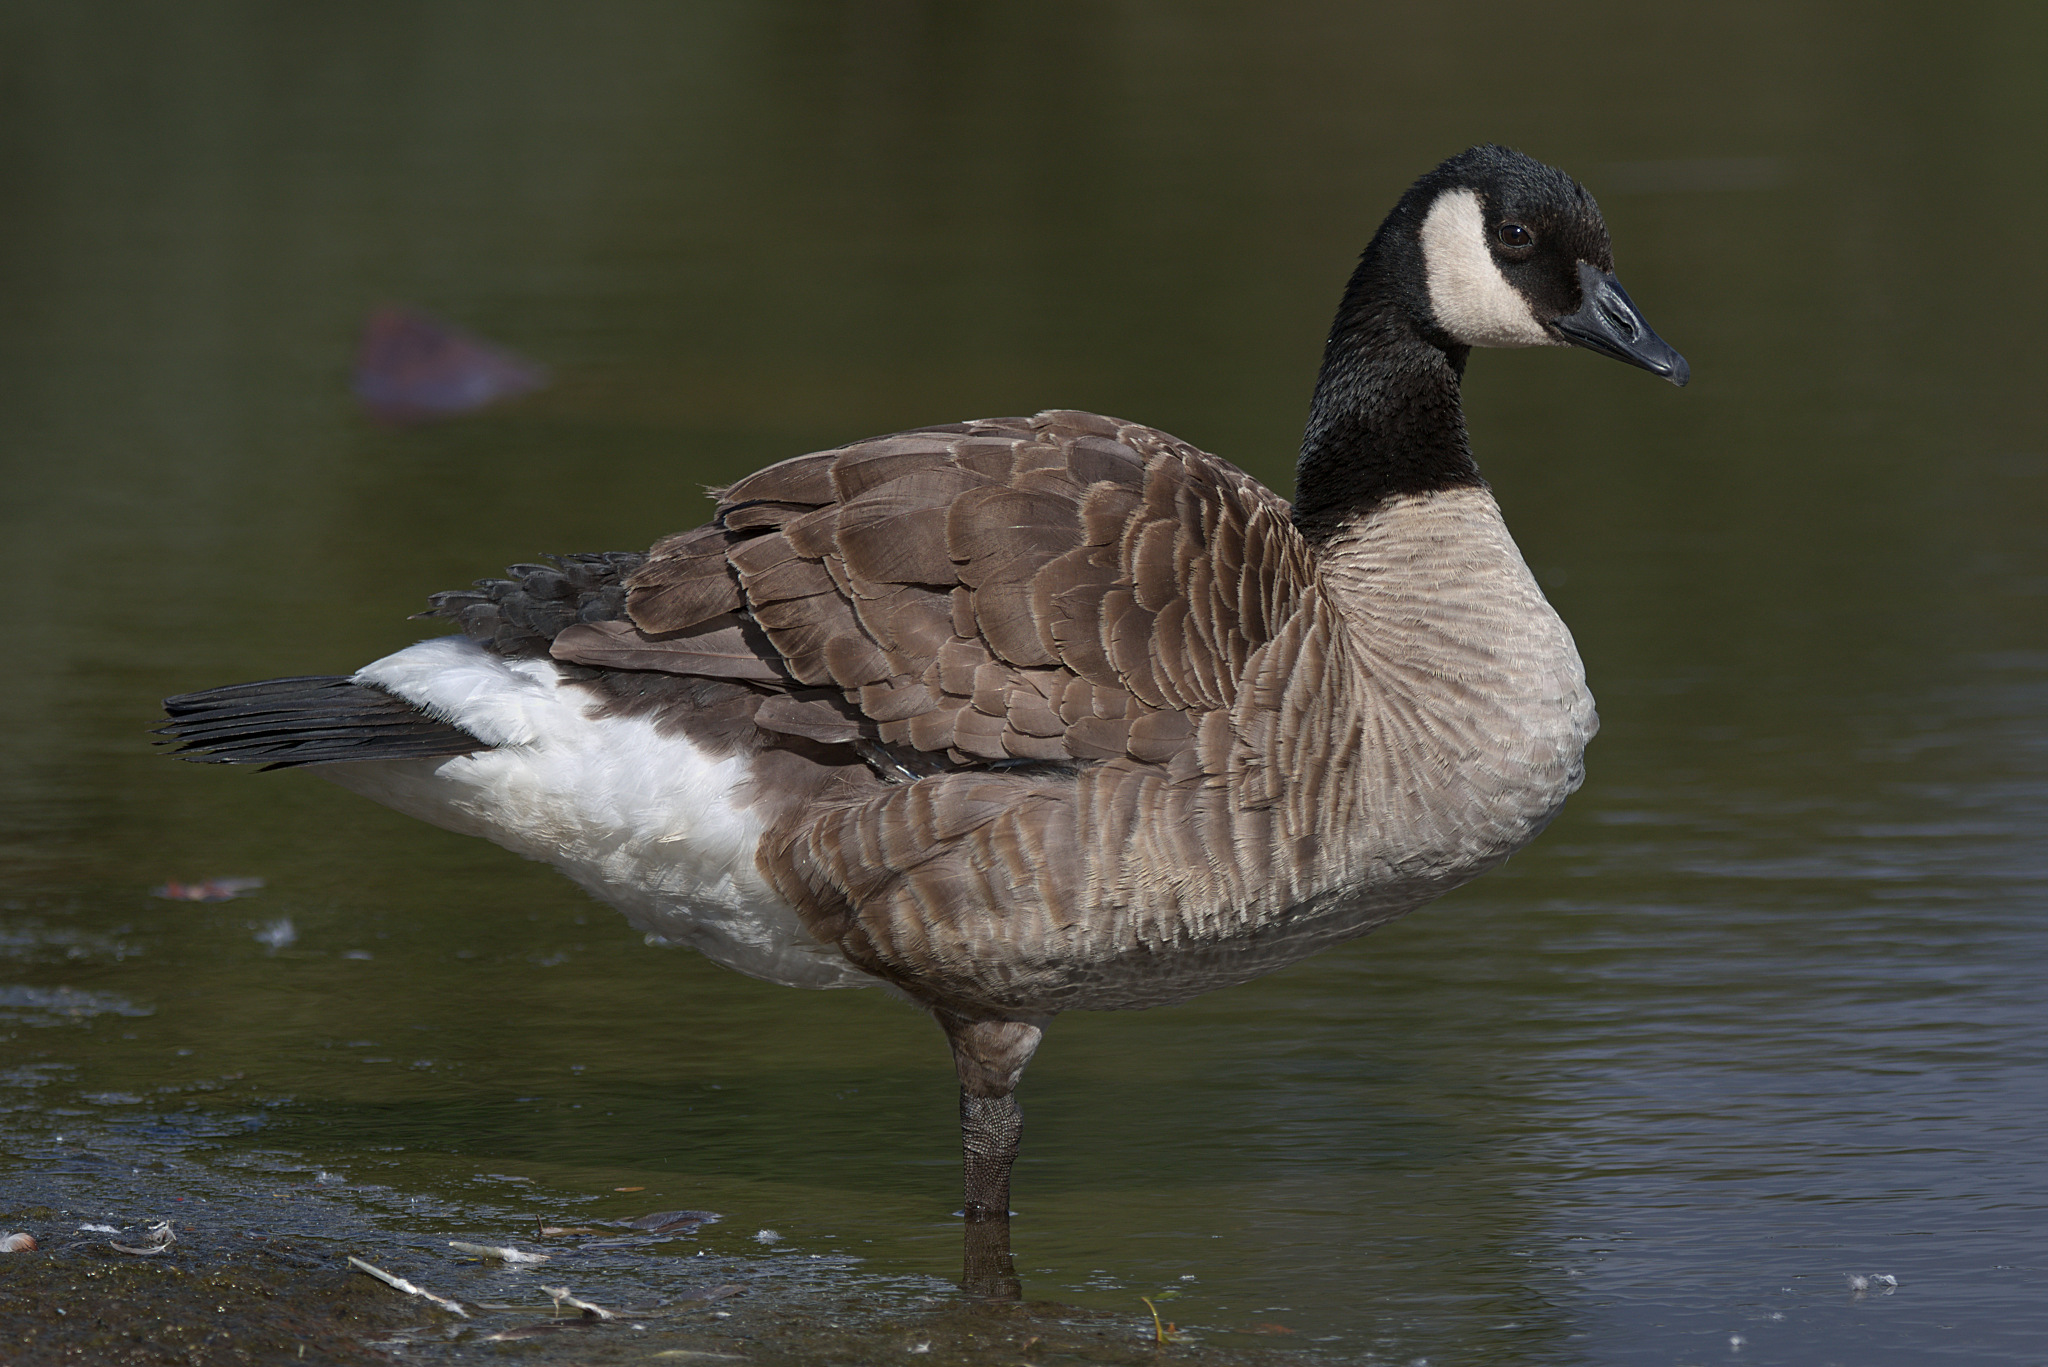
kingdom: Animalia
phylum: Chordata
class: Aves
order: Anseriformes
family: Anatidae
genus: Branta
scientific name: Branta canadensis
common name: Canada goose
